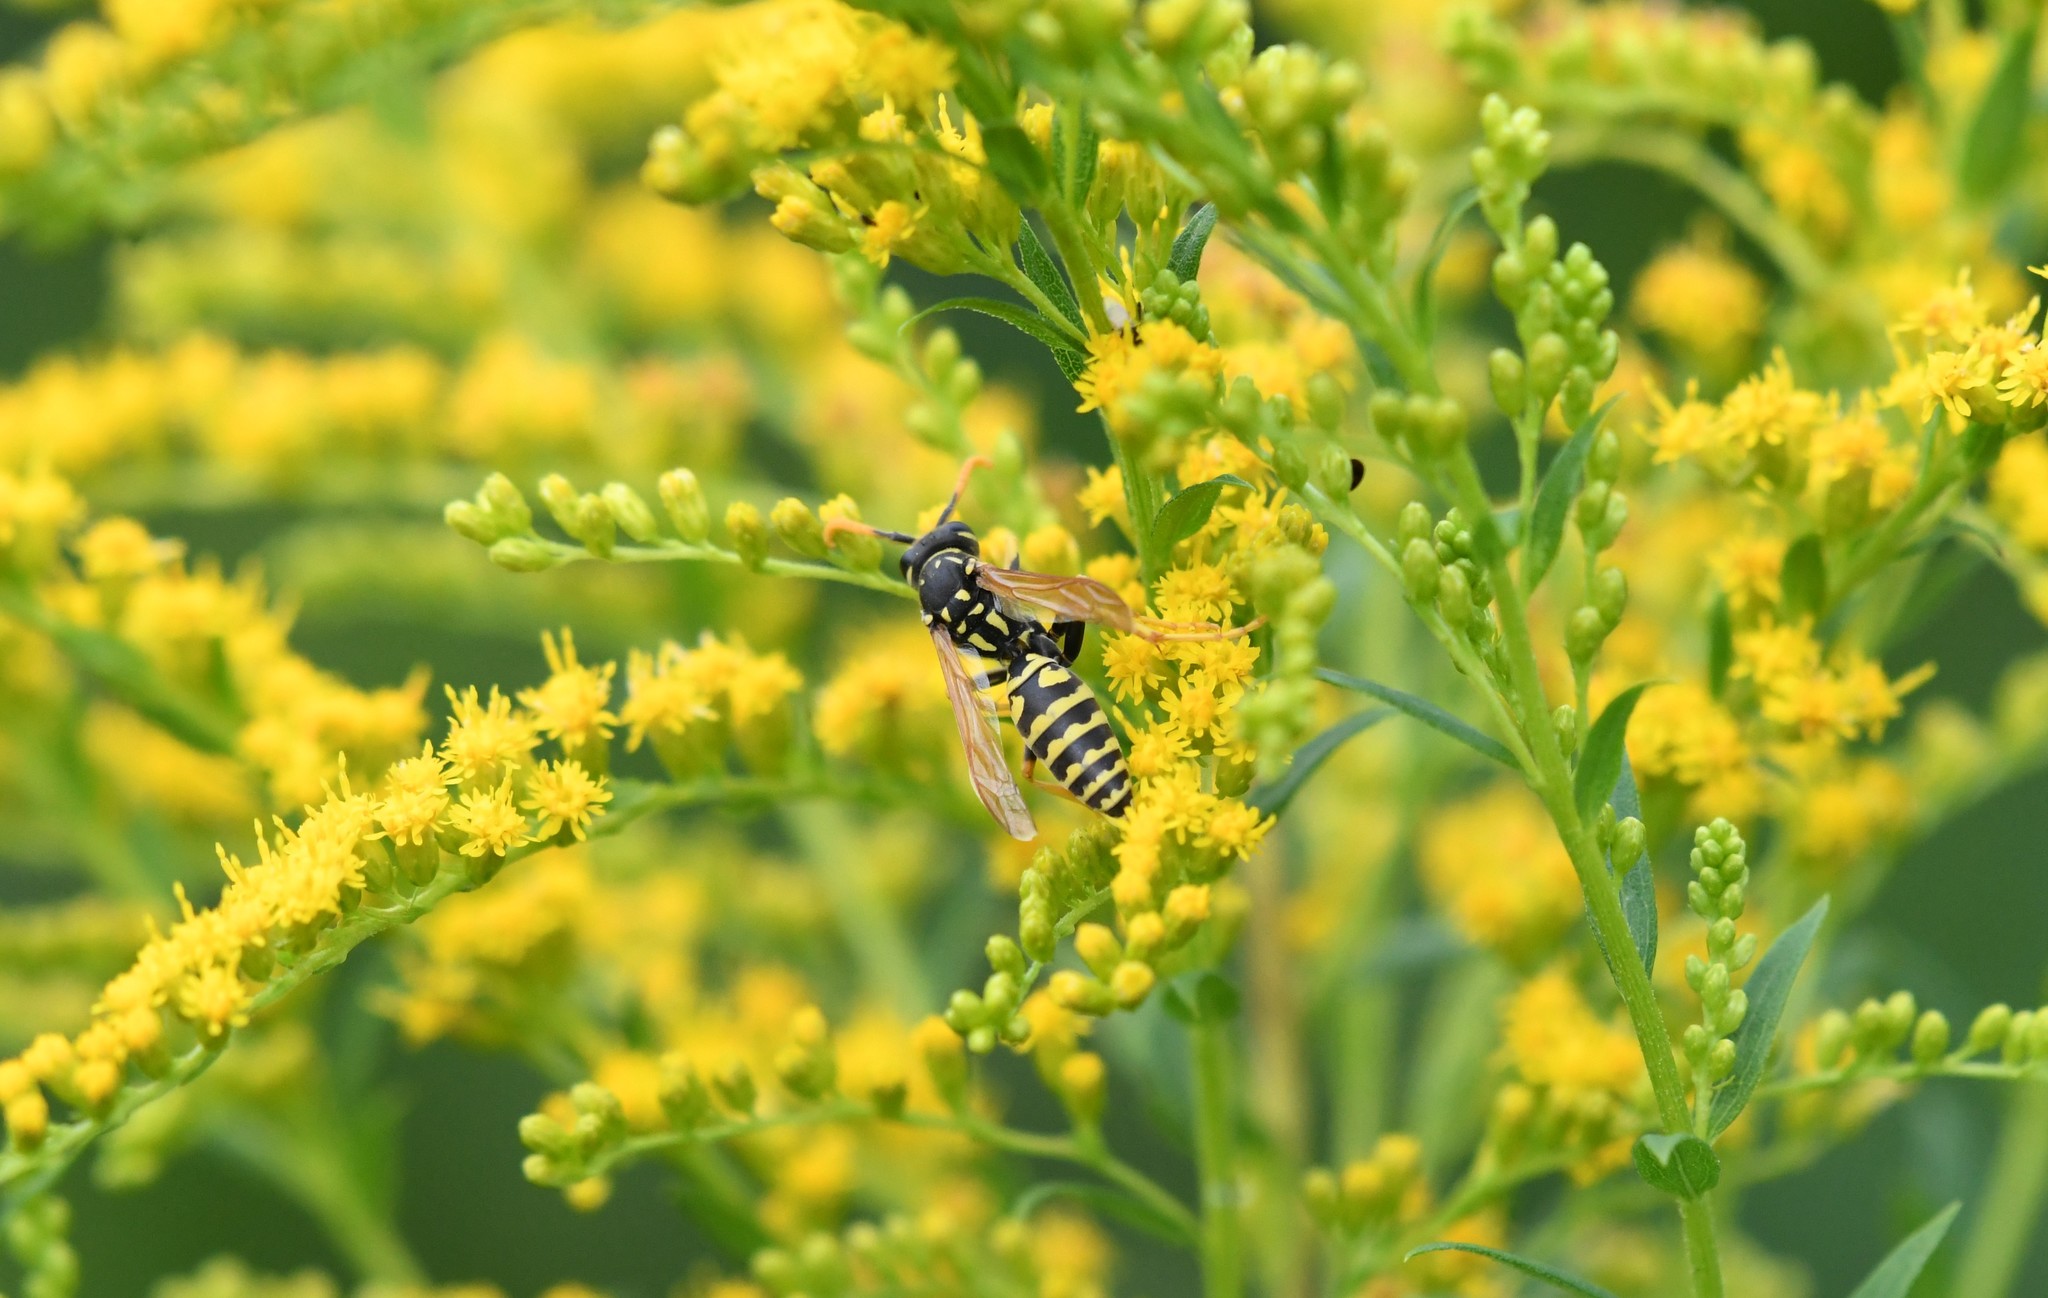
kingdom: Animalia
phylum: Arthropoda
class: Insecta
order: Hymenoptera
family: Eumenidae
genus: Polistes
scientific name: Polistes dominula
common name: Paper wasp
